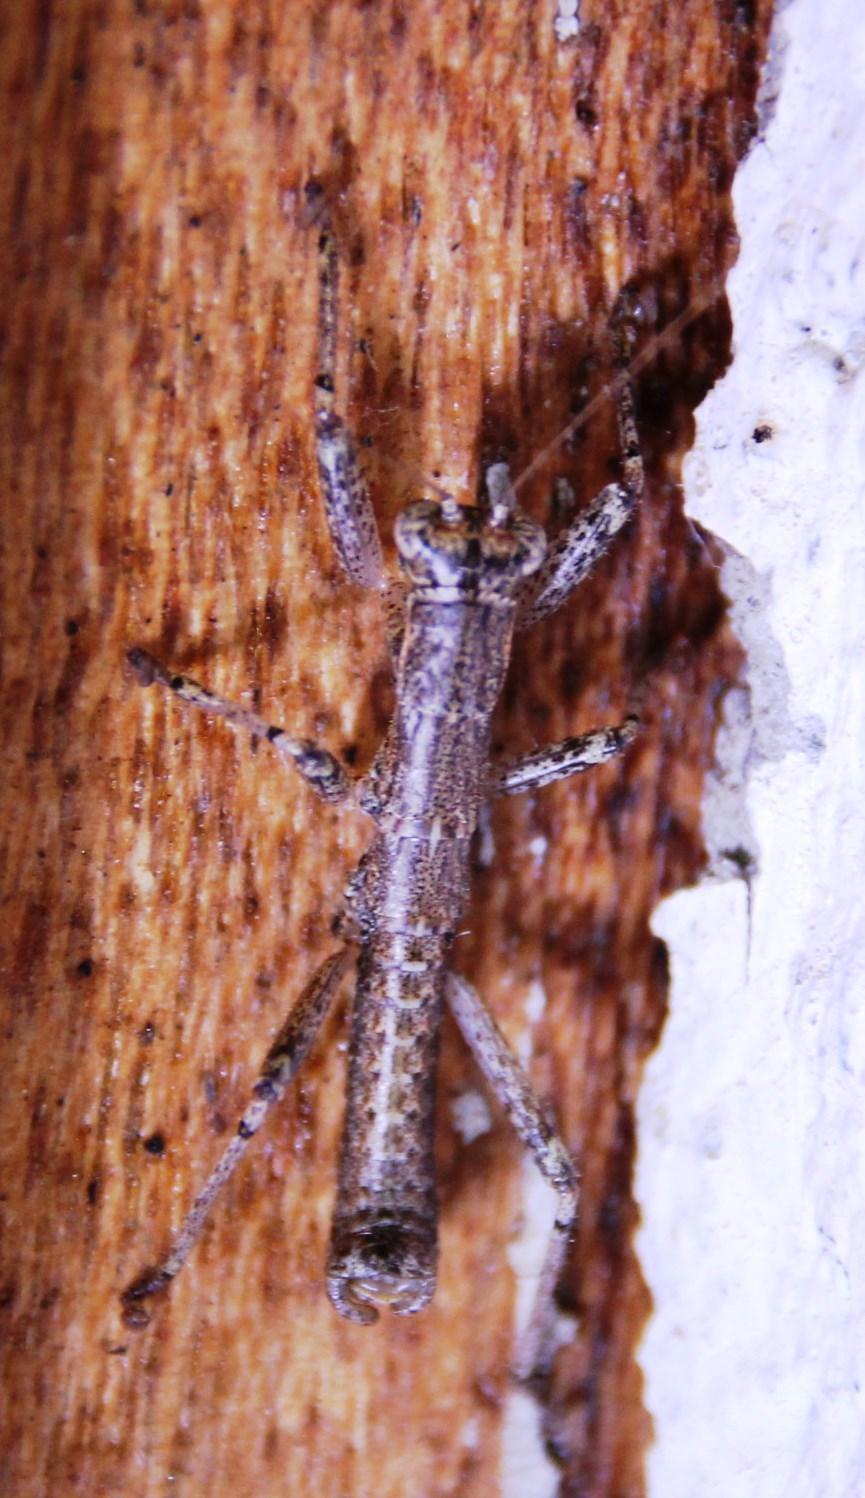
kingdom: Animalia
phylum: Arthropoda
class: Insecta
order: Mantophasmatodea
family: Mantophasmatidae
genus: Karoophasma
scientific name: Karoophasma biedouwensis
